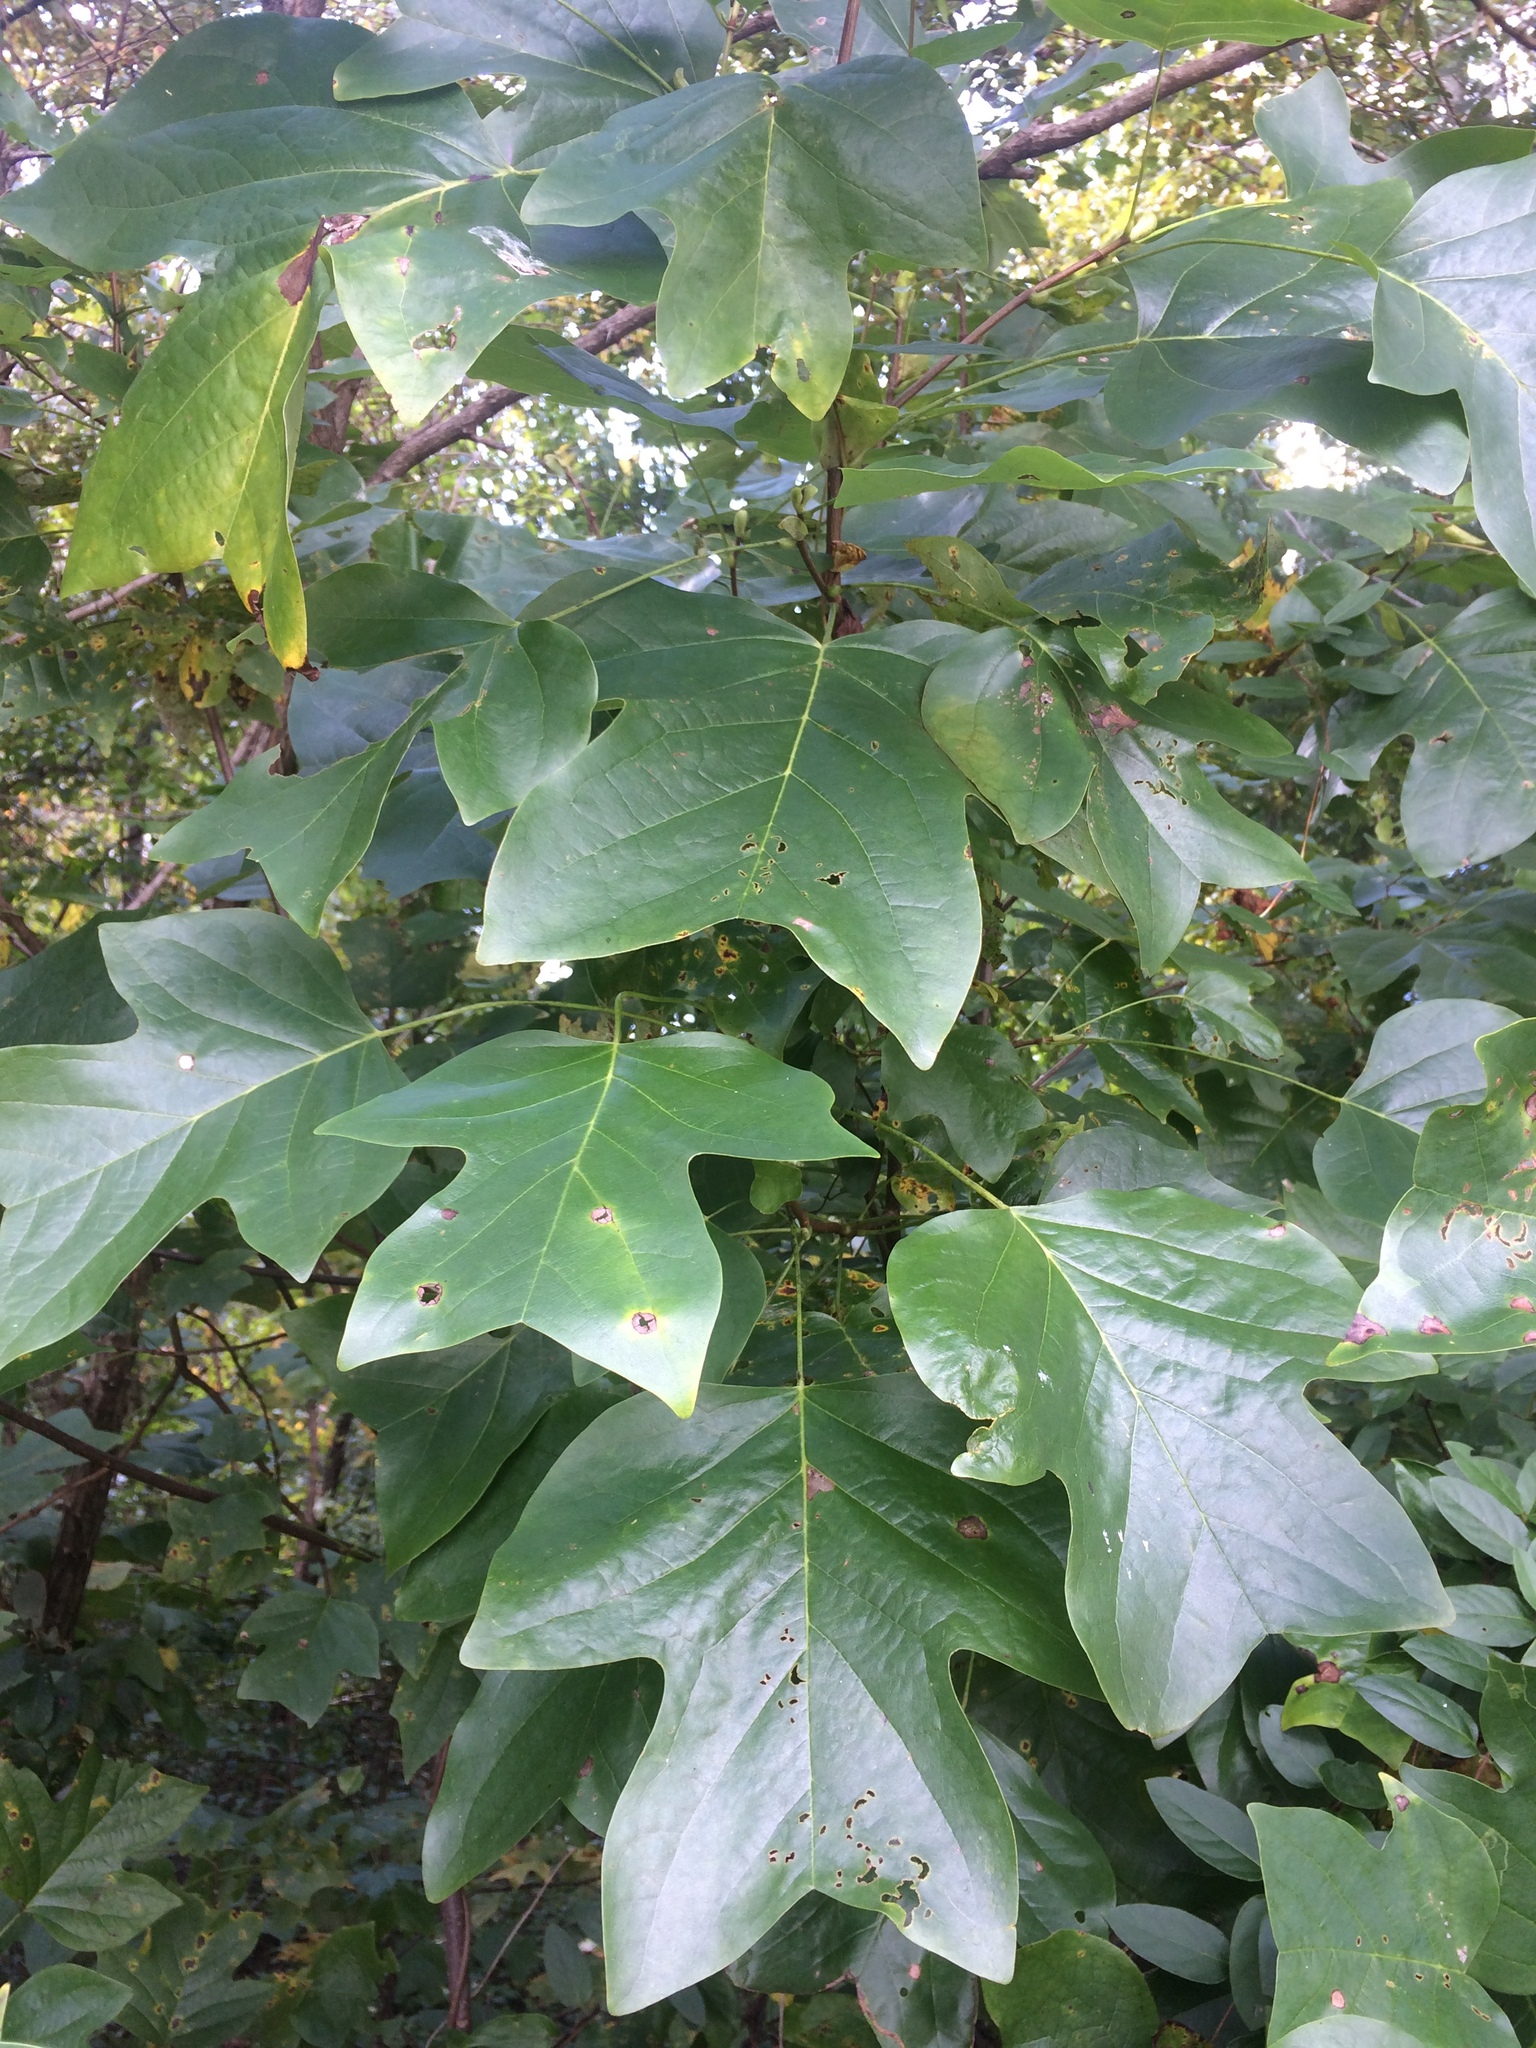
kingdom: Plantae
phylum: Tracheophyta
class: Magnoliopsida
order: Magnoliales
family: Magnoliaceae
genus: Liriodendron
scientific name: Liriodendron tulipifera
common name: Tulip tree
